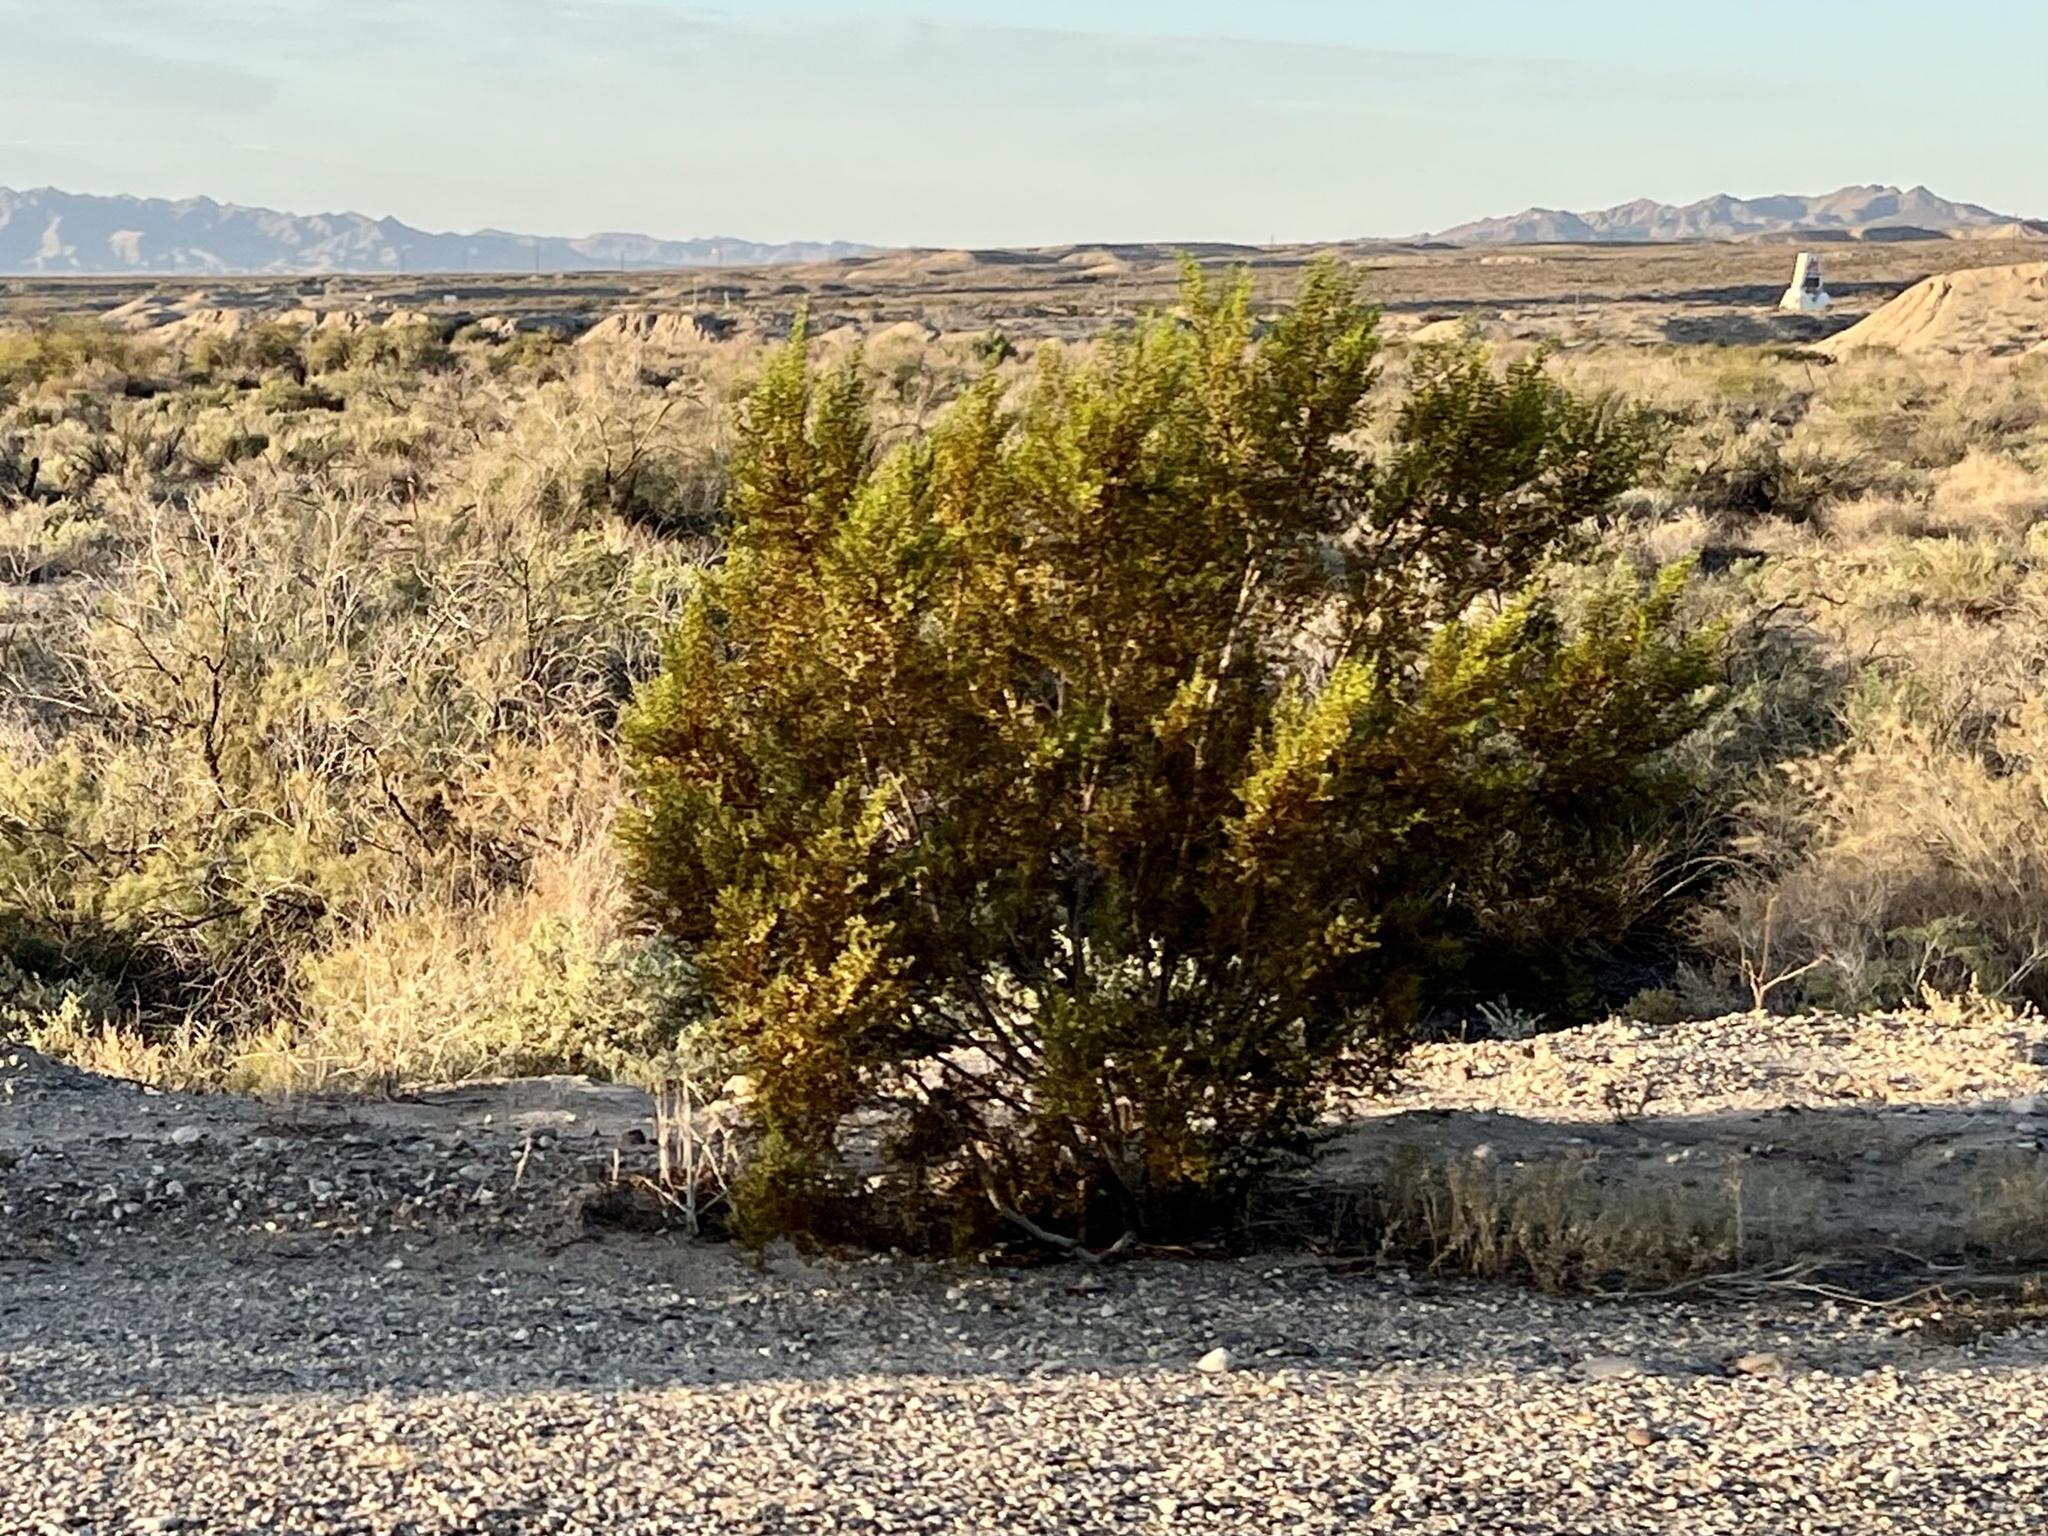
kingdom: Plantae
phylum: Tracheophyta
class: Magnoliopsida
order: Zygophyllales
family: Zygophyllaceae
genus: Larrea
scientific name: Larrea tridentata
